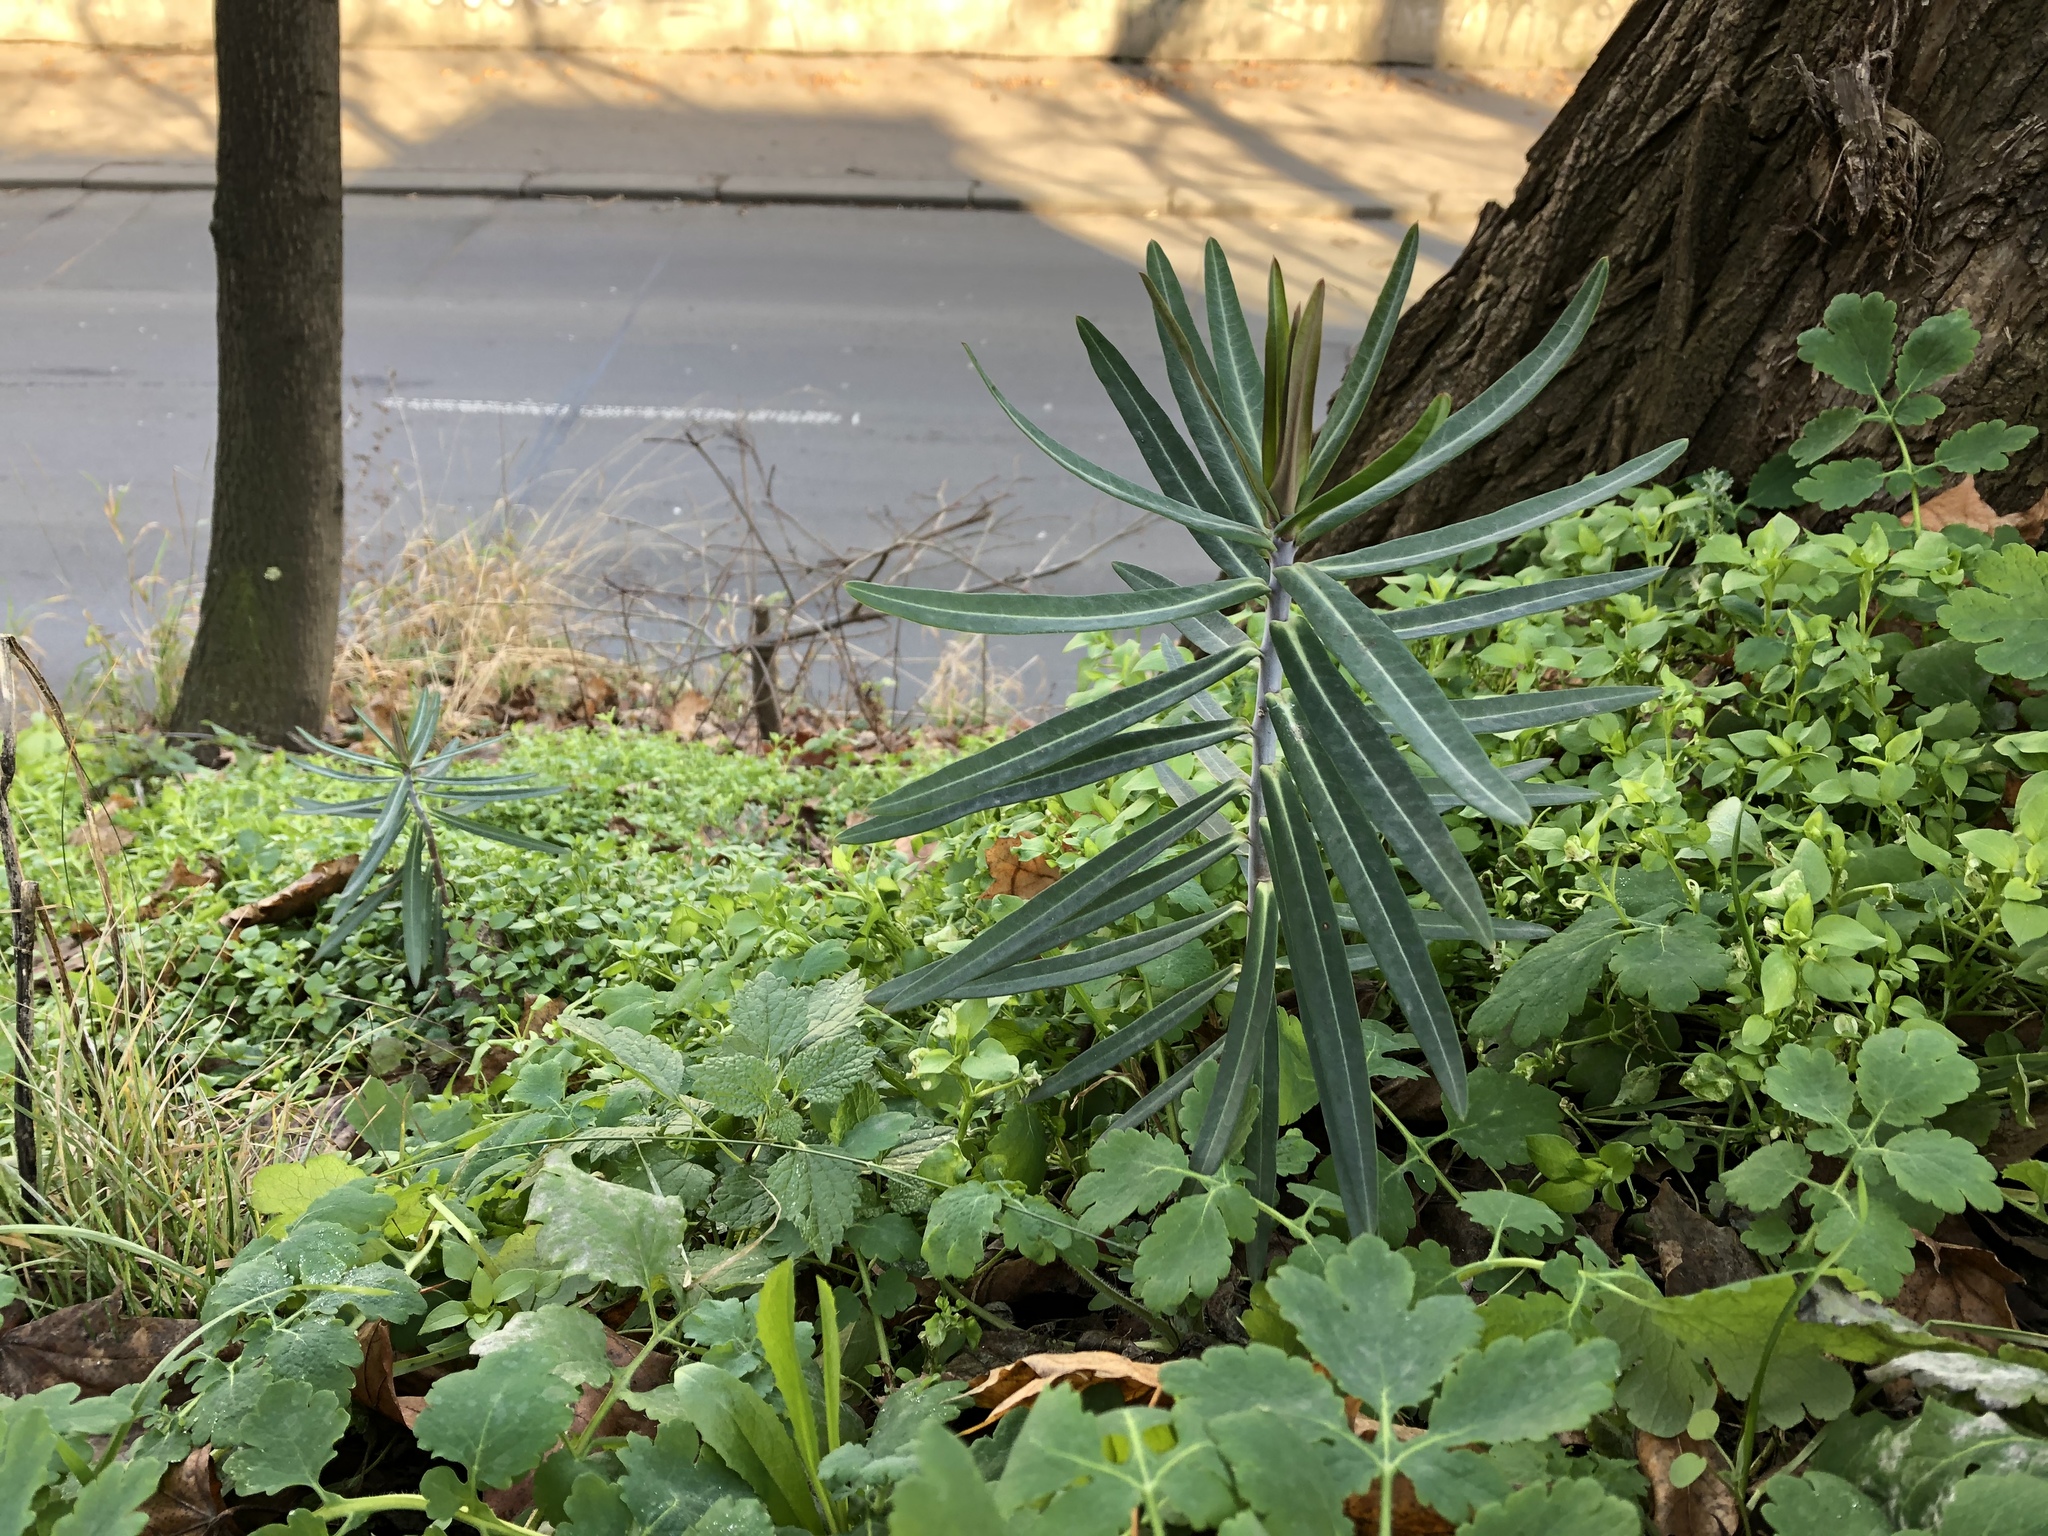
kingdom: Plantae
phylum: Tracheophyta
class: Magnoliopsida
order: Malpighiales
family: Euphorbiaceae
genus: Euphorbia
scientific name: Euphorbia lathyris
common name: Caper spurge
